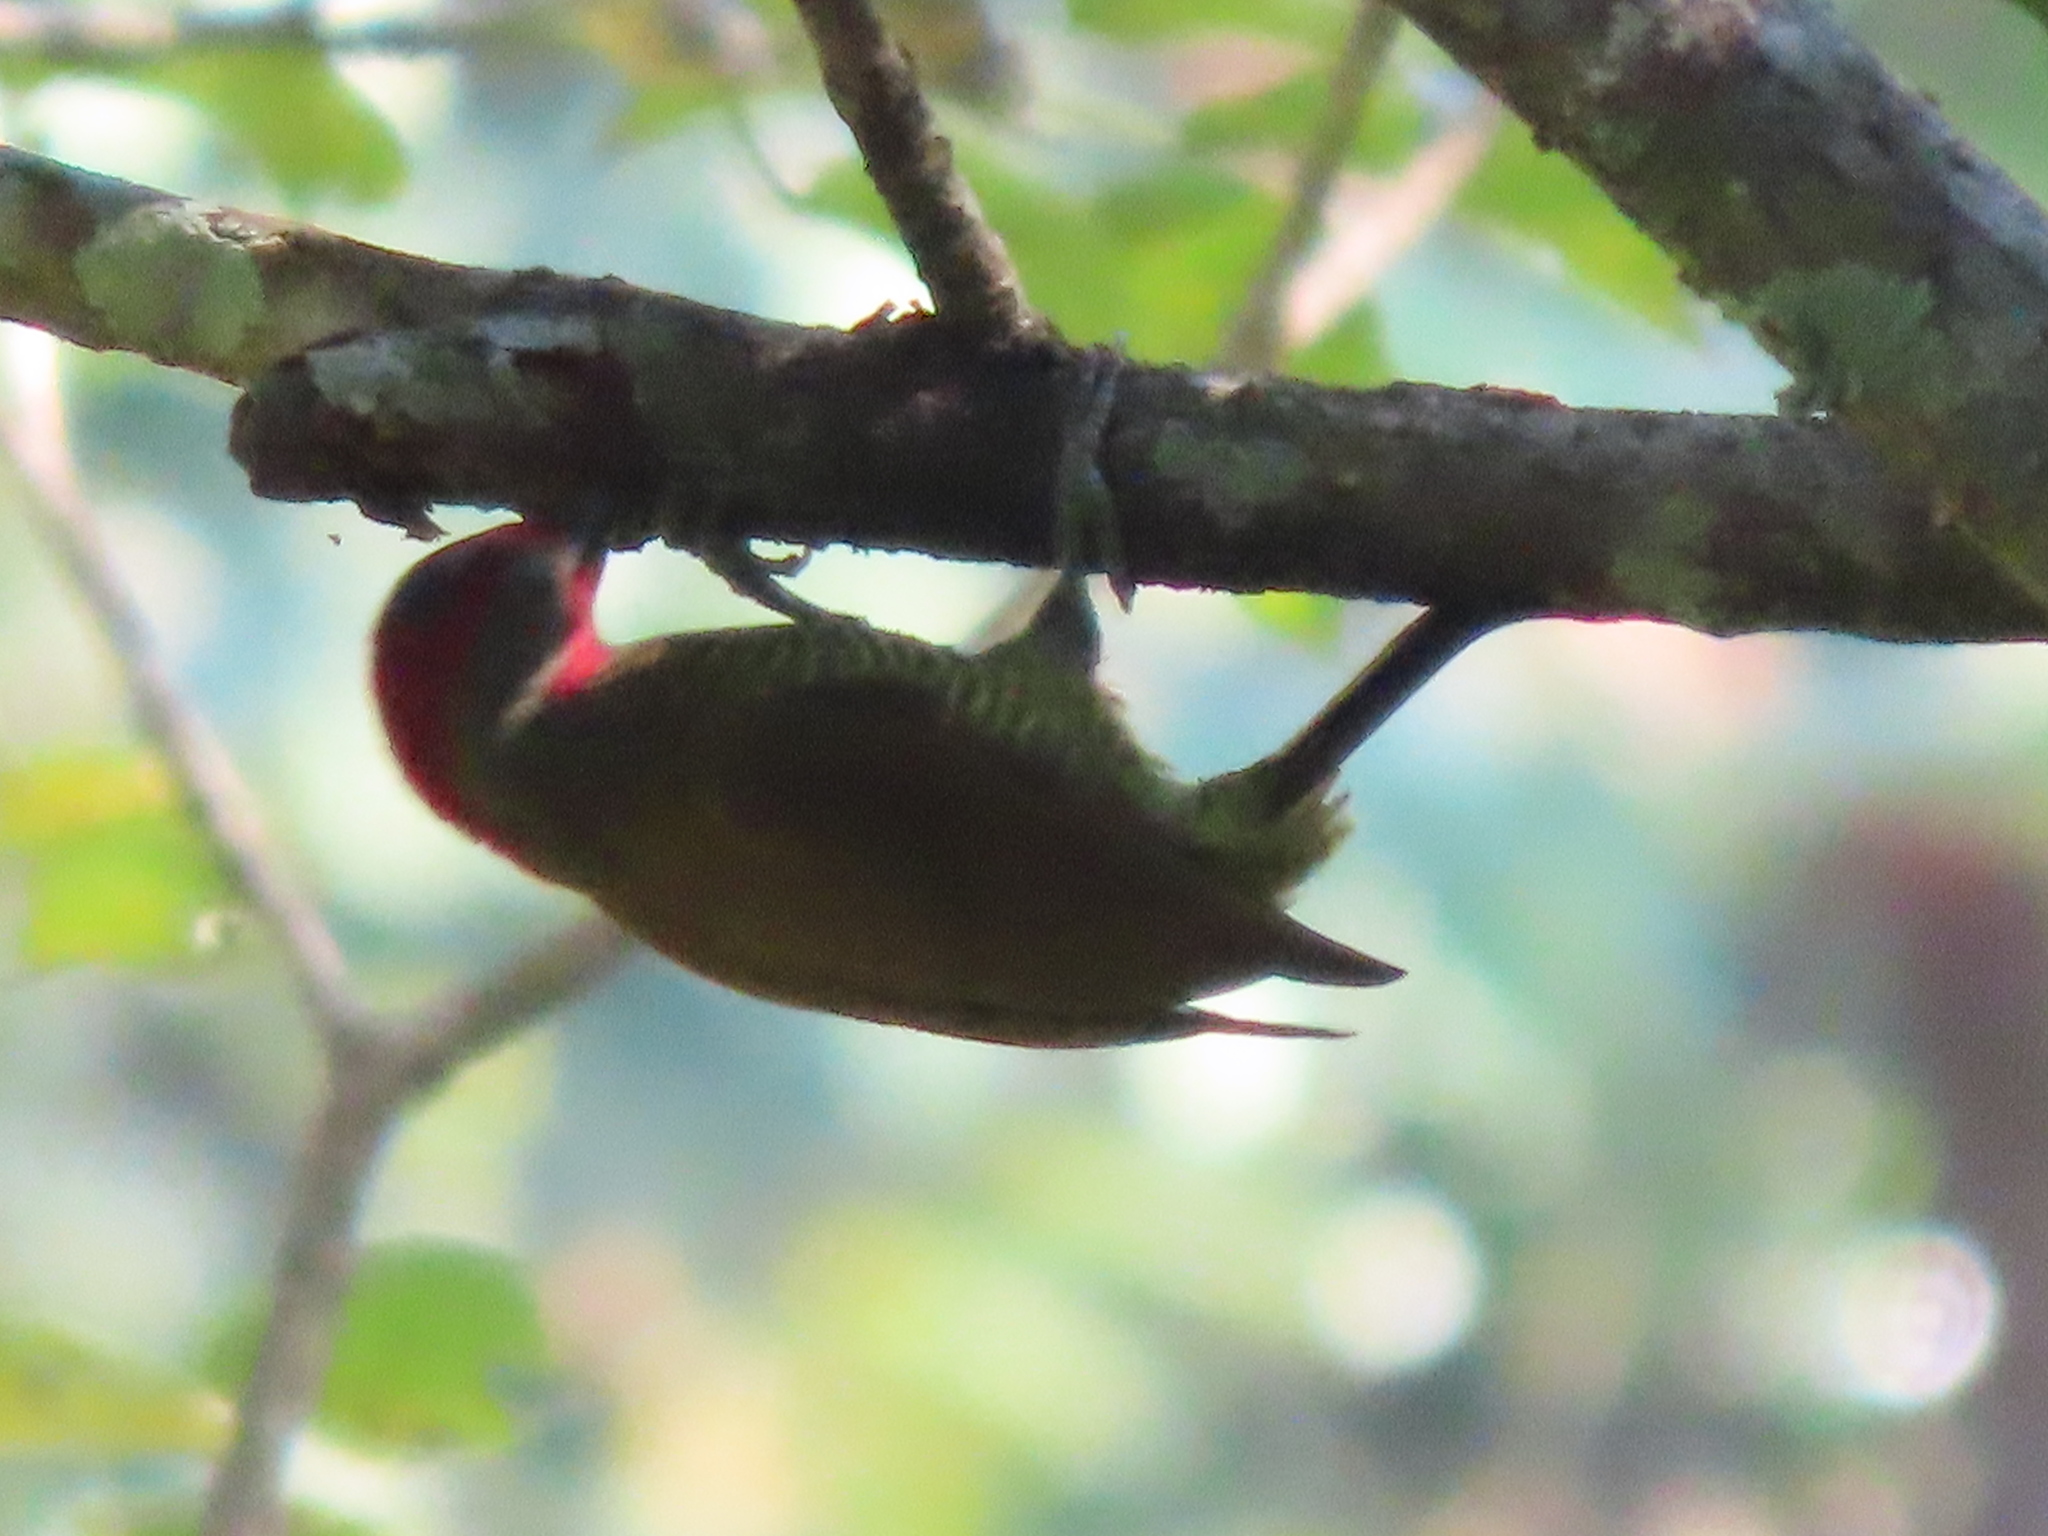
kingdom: Animalia
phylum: Chordata
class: Aves
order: Piciformes
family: Picidae
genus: Colaptes
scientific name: Colaptes rubiginosus
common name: Golden-olive woodpecker
